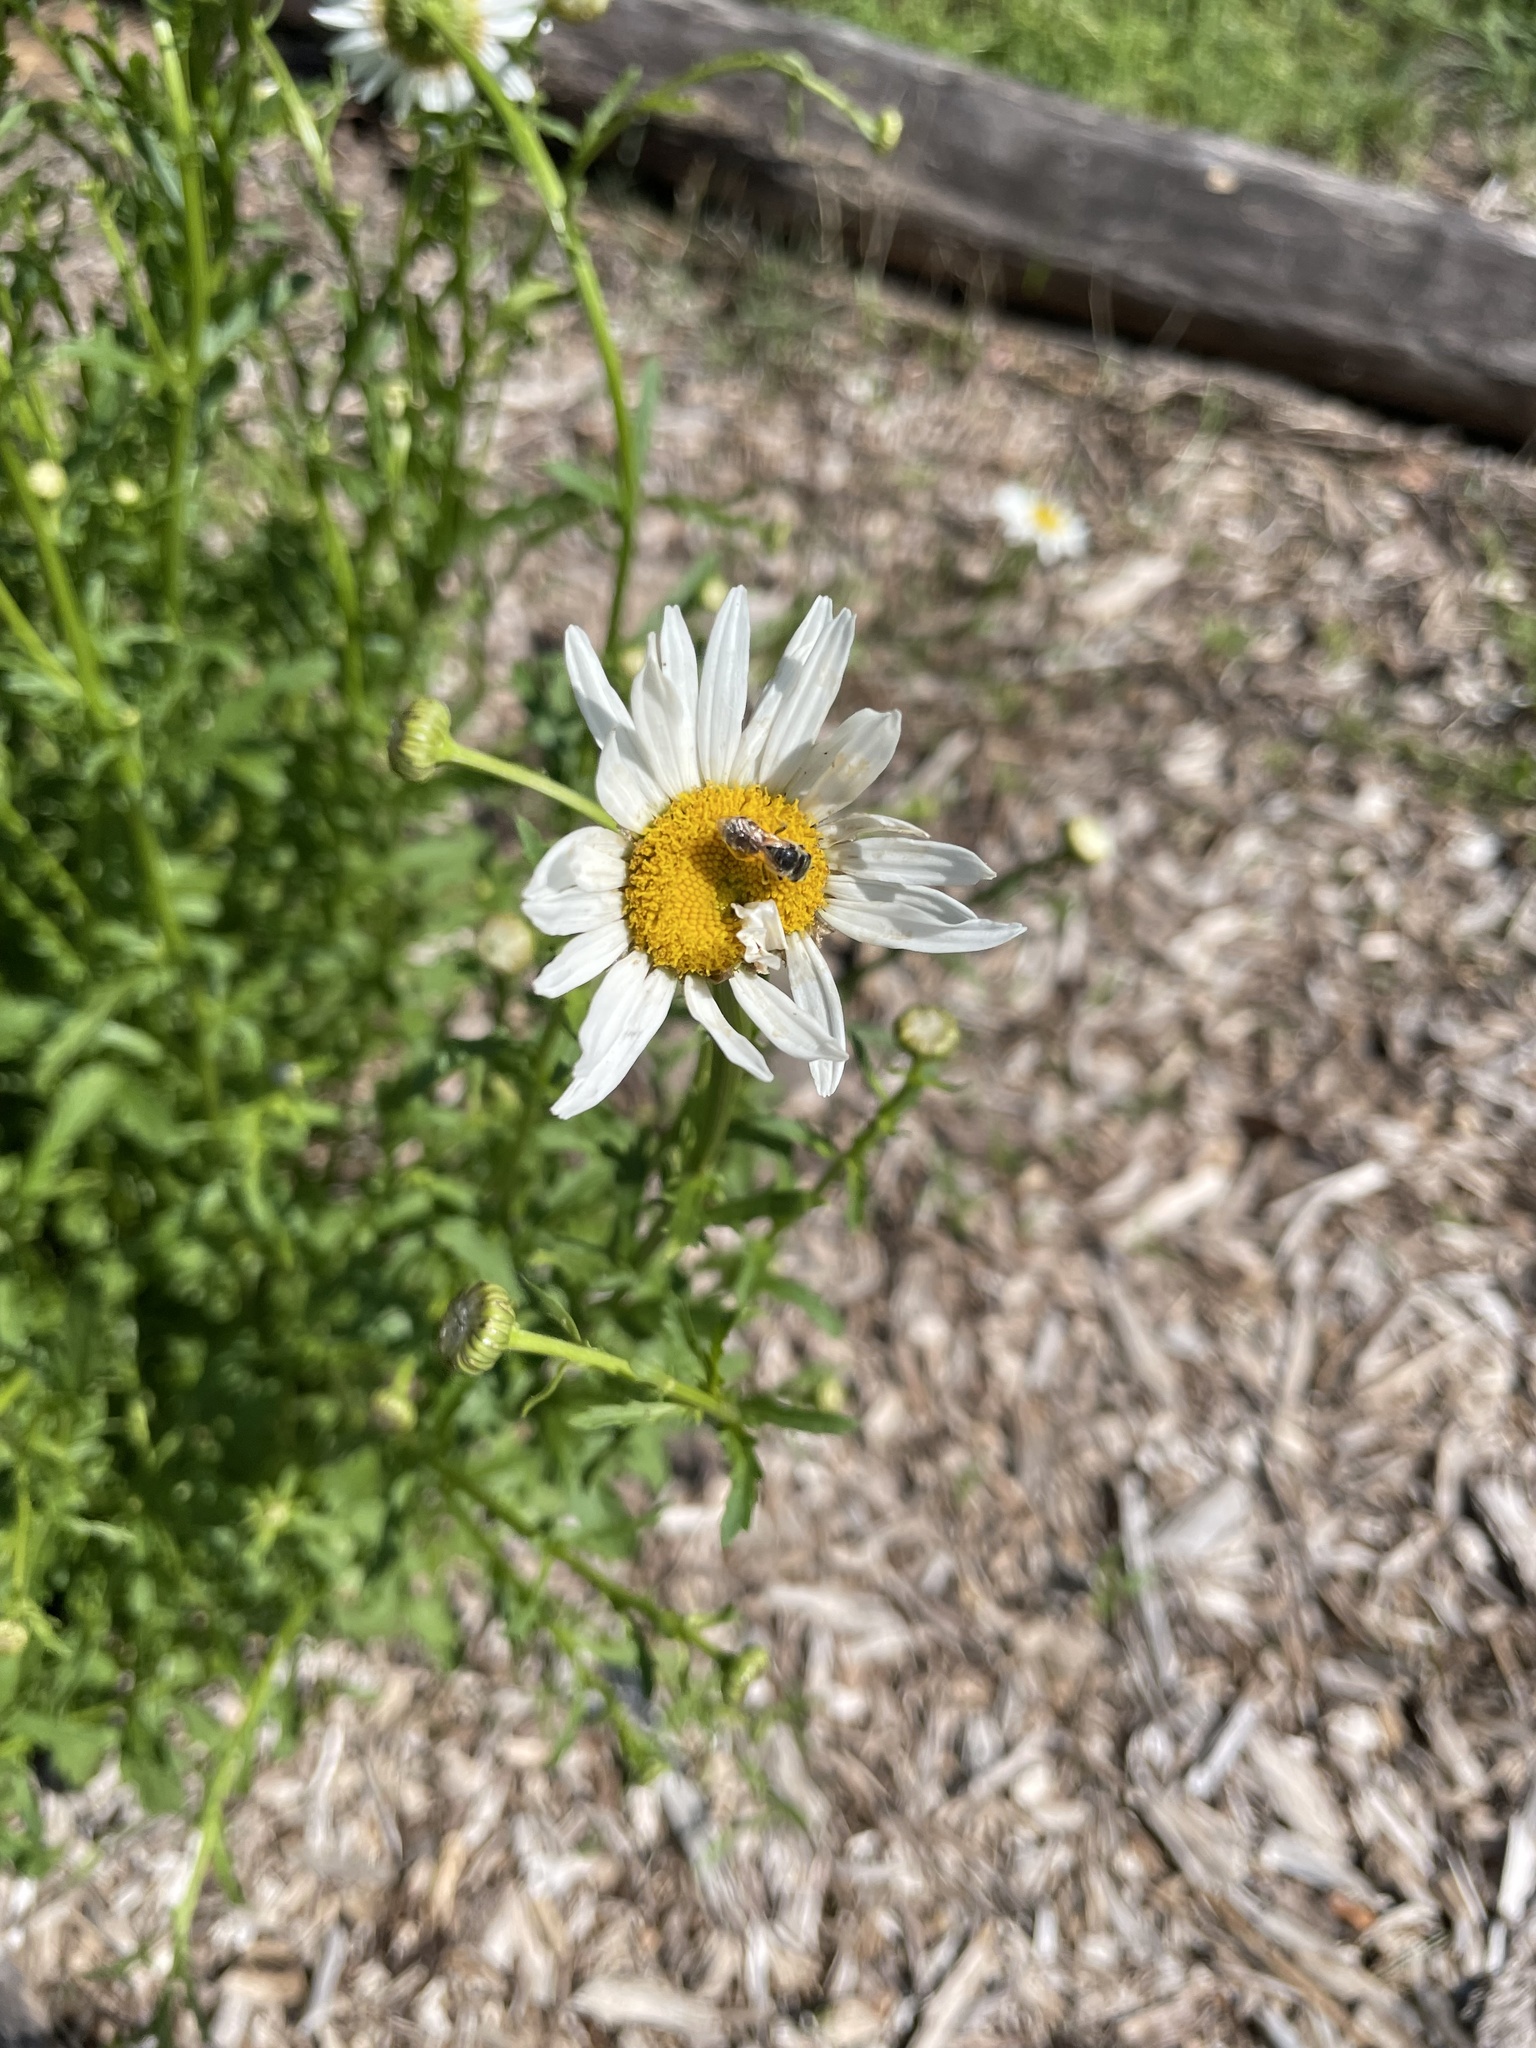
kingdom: Animalia
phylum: Arthropoda
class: Insecta
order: Hymenoptera
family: Halictidae
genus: Halictus
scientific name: Halictus ligatus
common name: Ligated furrow bee
